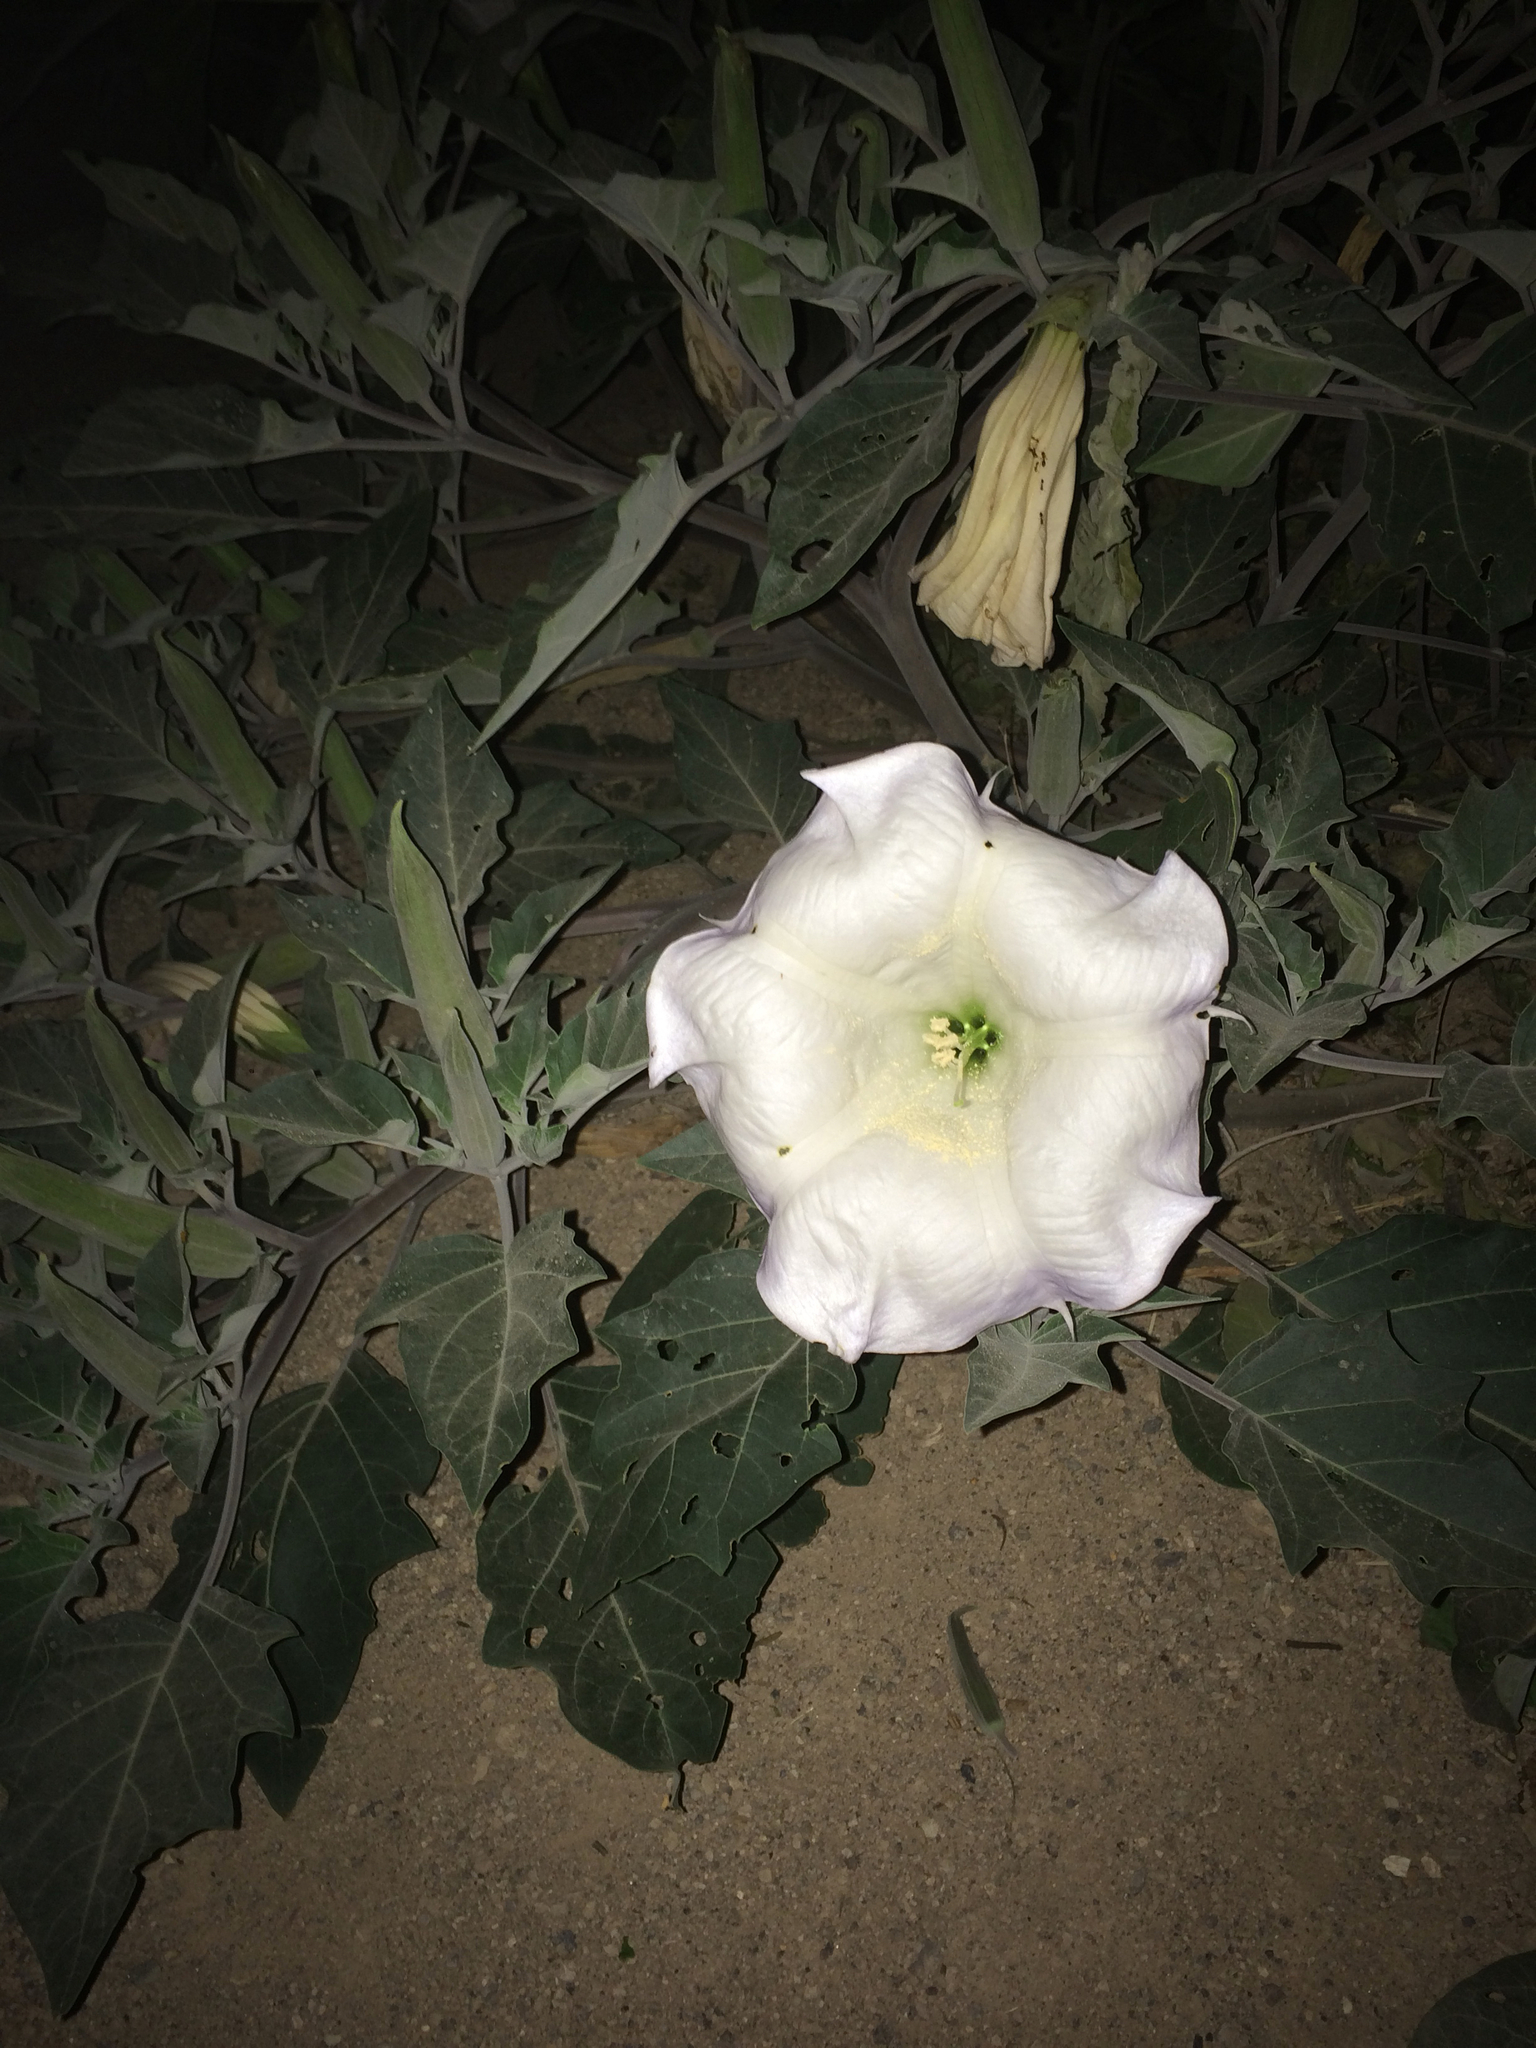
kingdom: Plantae
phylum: Tracheophyta
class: Magnoliopsida
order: Solanales
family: Solanaceae
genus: Datura
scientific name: Datura wrightii
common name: Sacred thorn-apple
